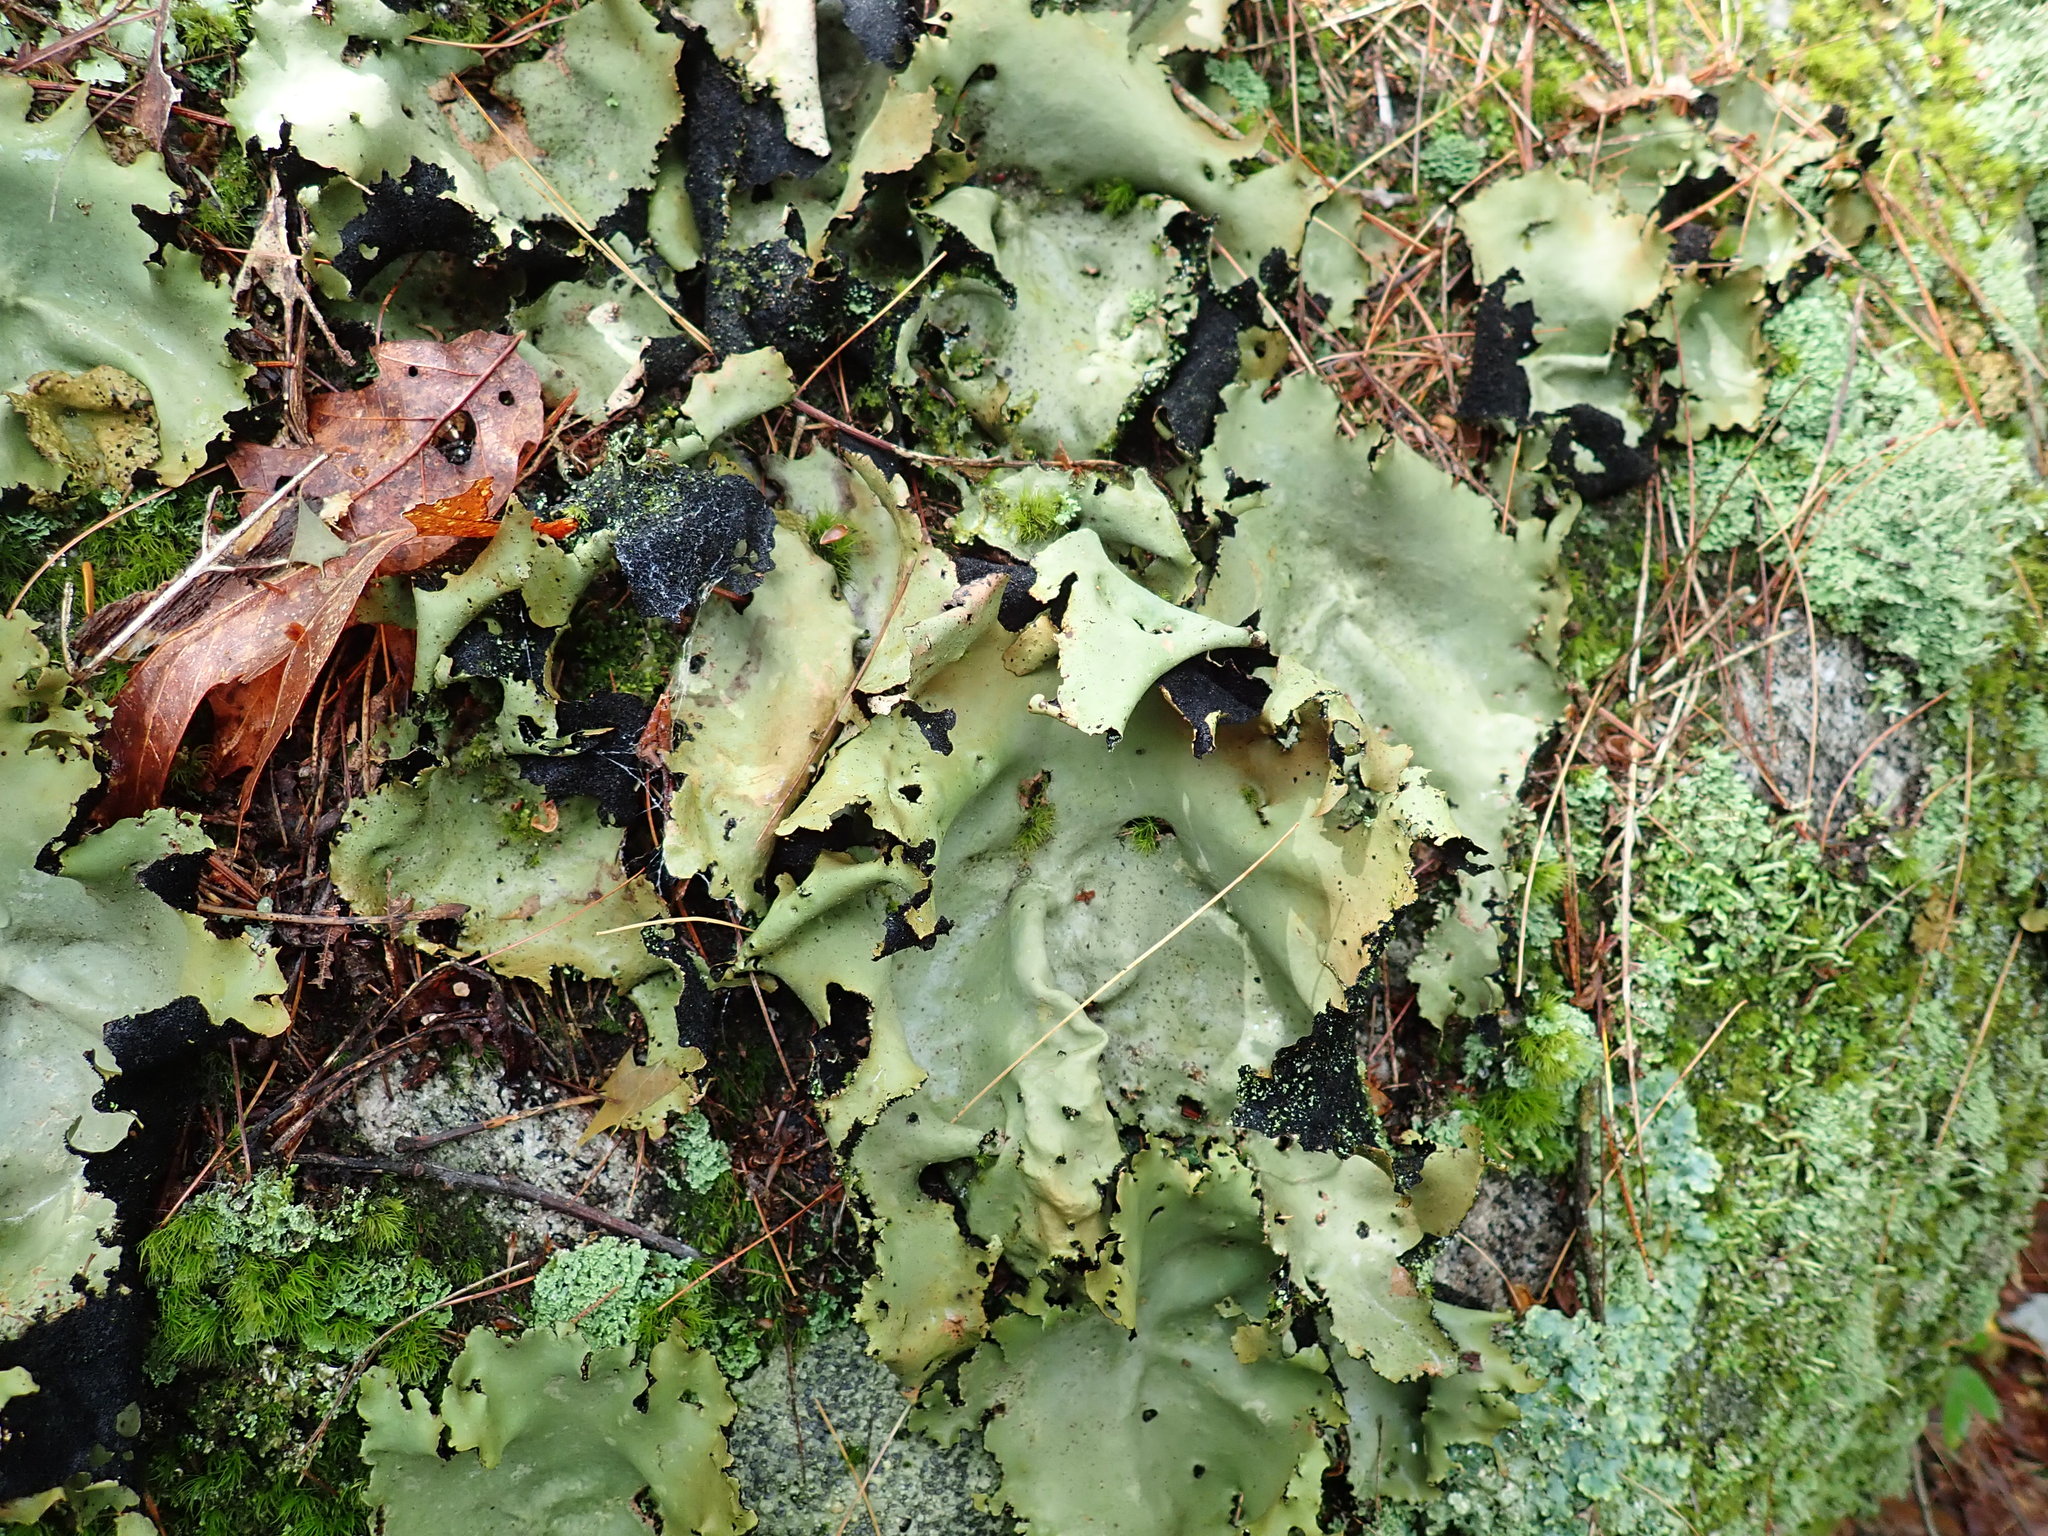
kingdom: Fungi
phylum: Ascomycota
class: Lecanoromycetes
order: Umbilicariales
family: Umbilicariaceae
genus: Umbilicaria
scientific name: Umbilicaria mammulata
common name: Smooth rock tripe
